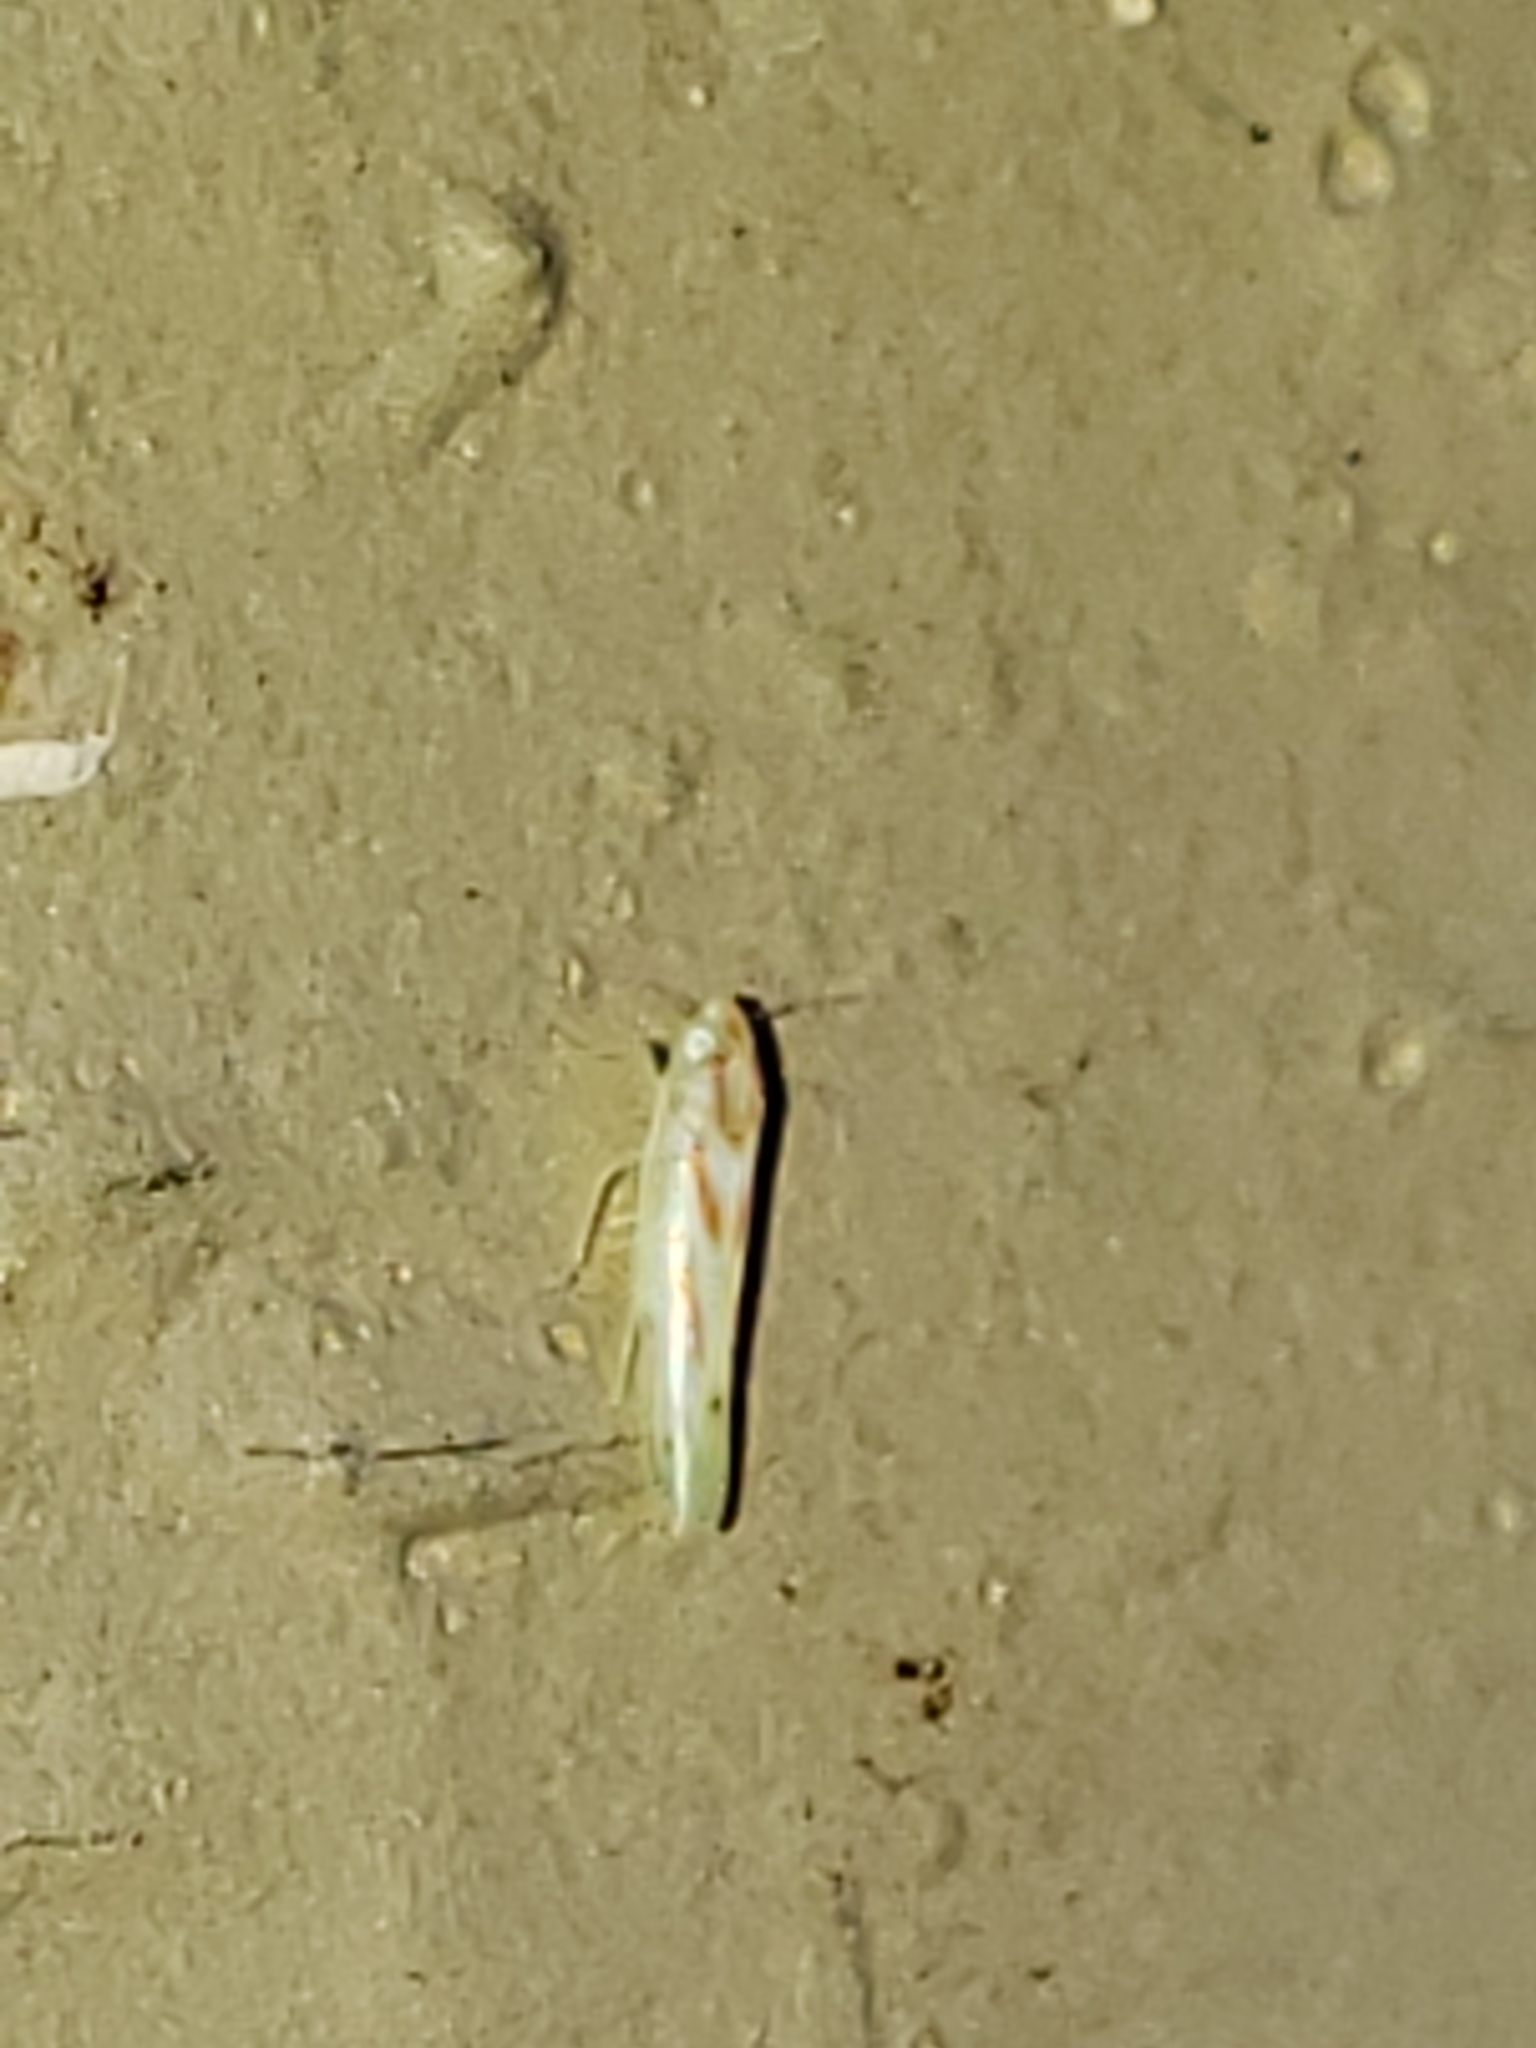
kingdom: Animalia
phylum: Arthropoda
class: Insecta
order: Hemiptera
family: Cicadellidae
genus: Dikrella
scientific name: Dikrella cruentata
